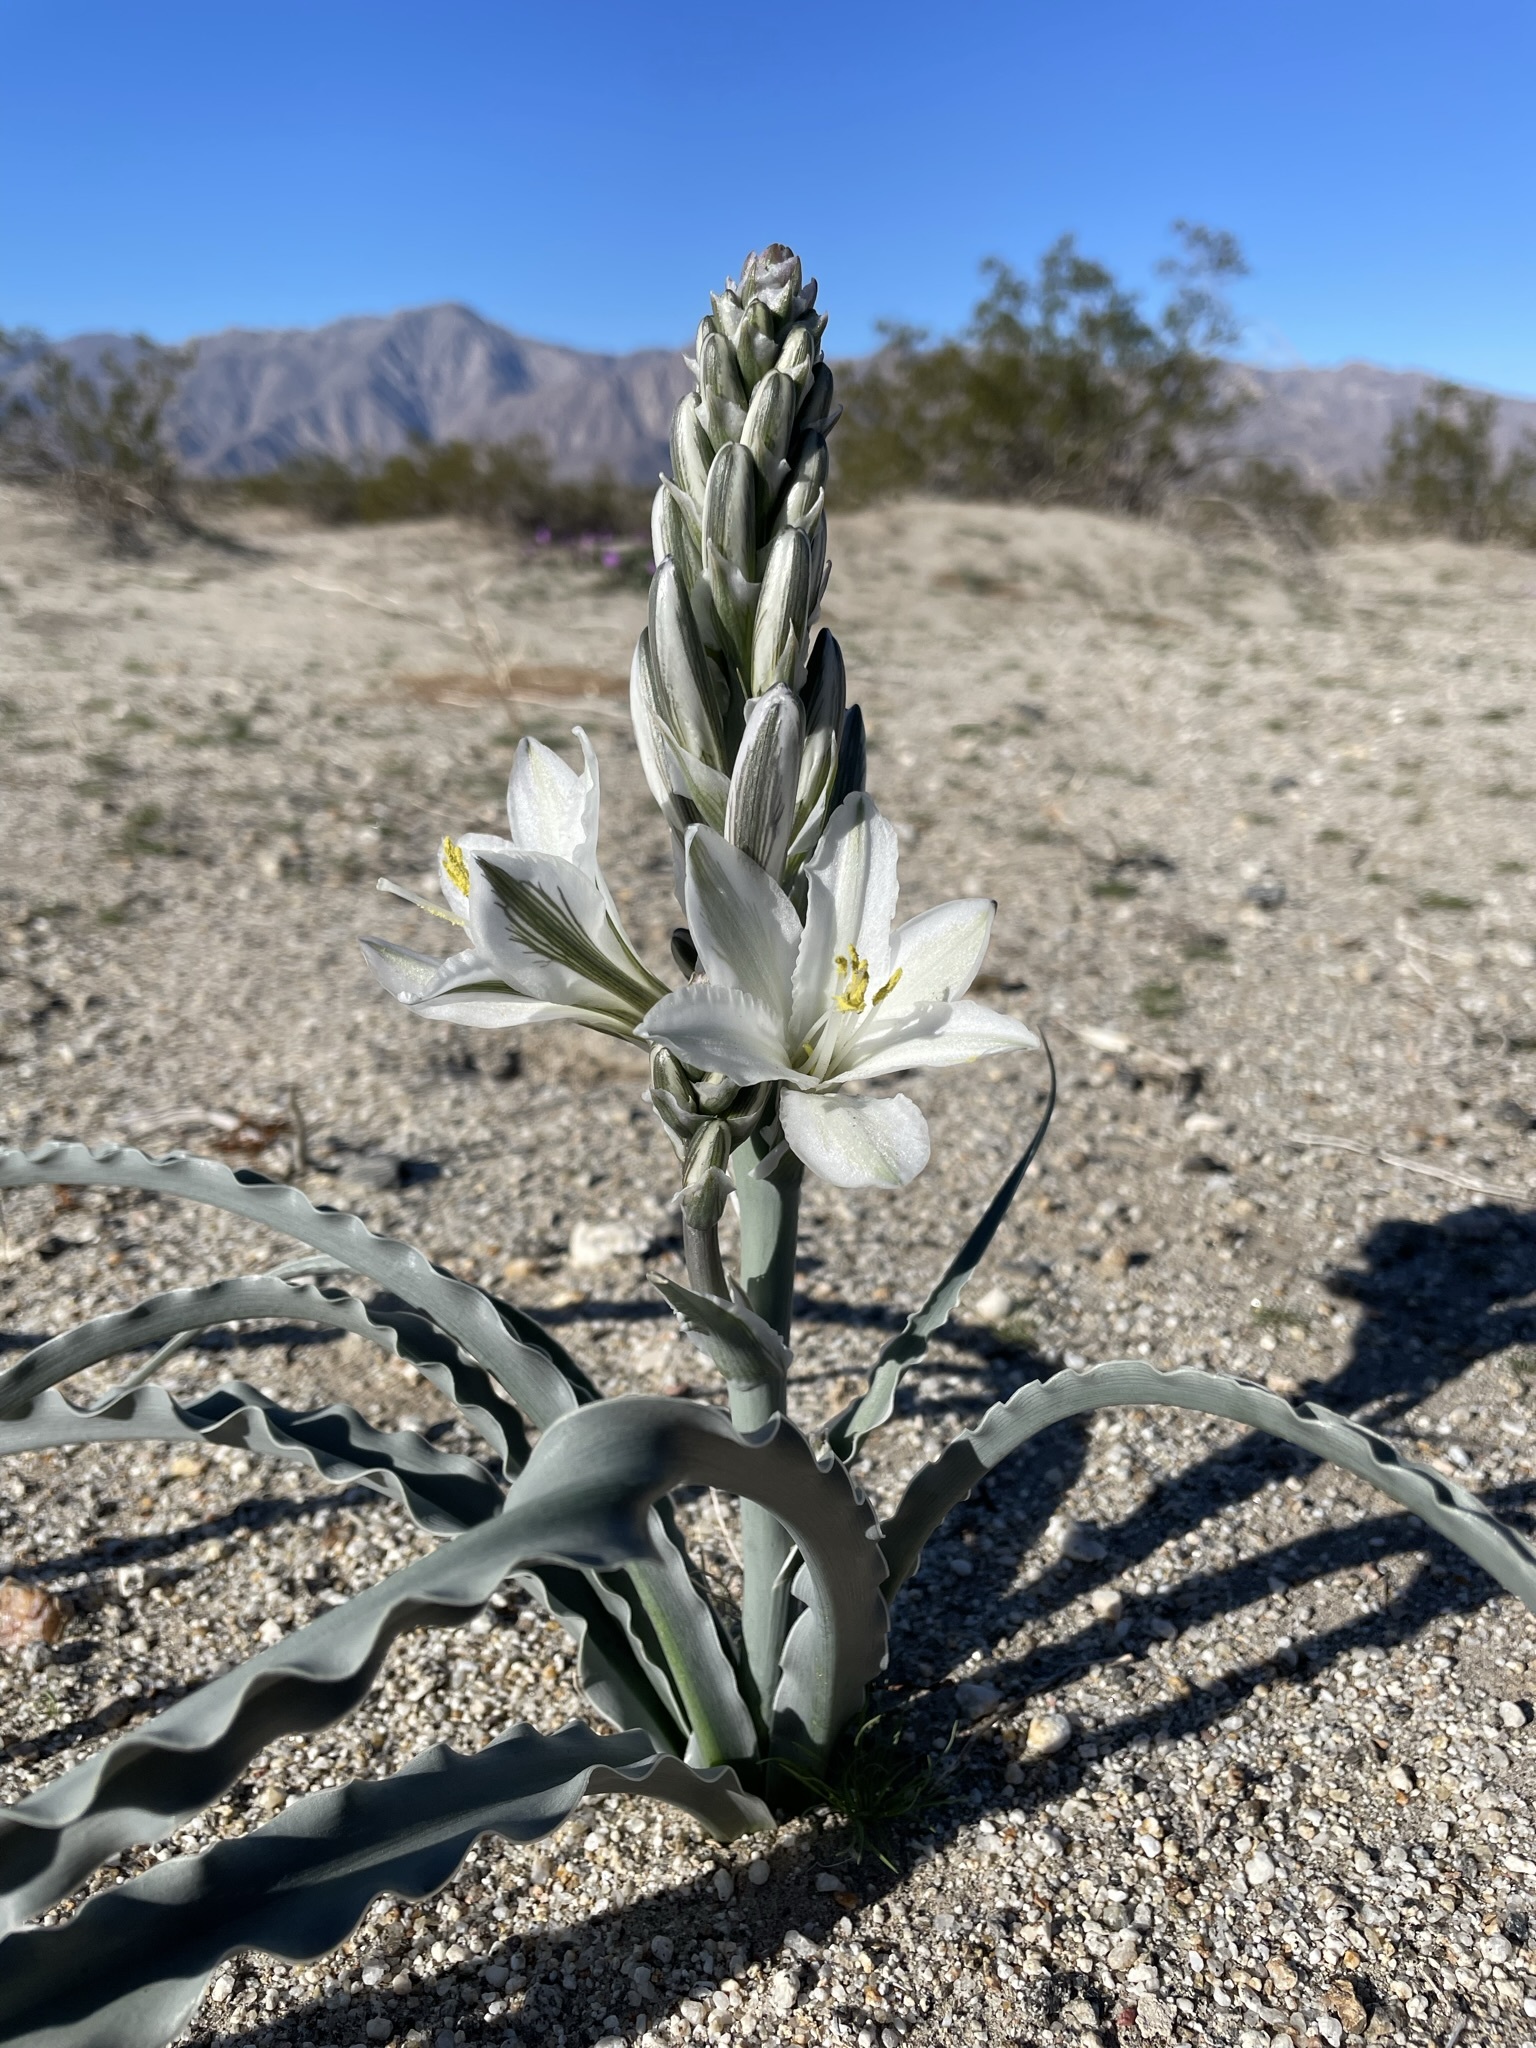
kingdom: Plantae
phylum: Tracheophyta
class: Liliopsida
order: Asparagales
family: Asparagaceae
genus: Hesperocallis
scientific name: Hesperocallis undulata
